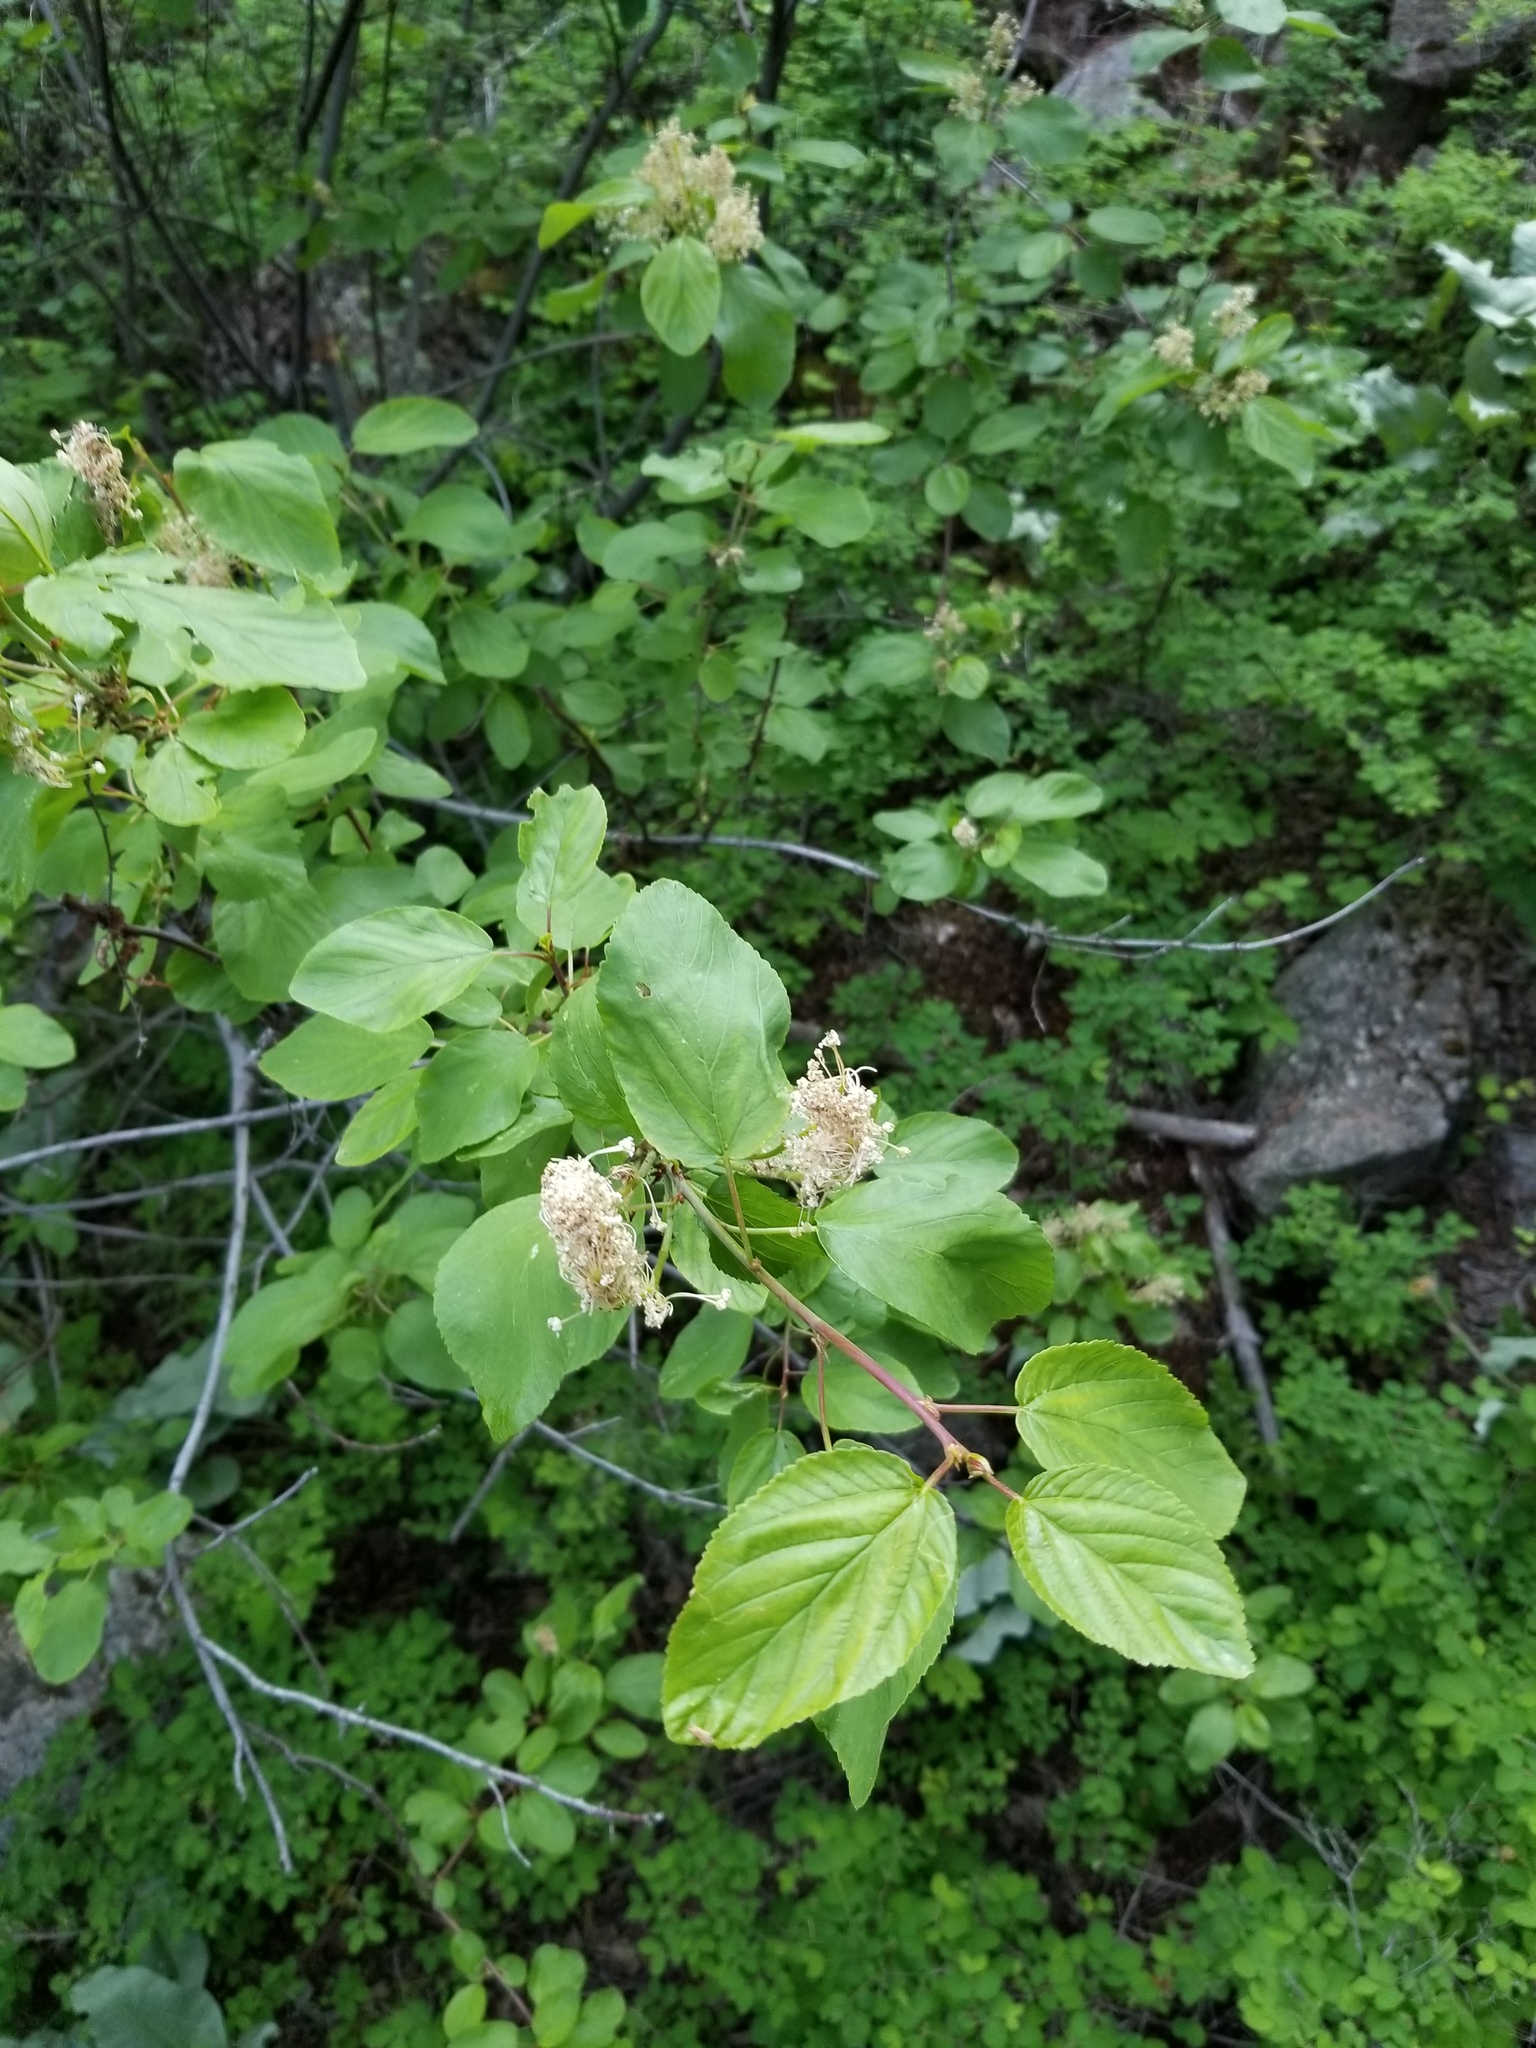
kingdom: Plantae
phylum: Tracheophyta
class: Magnoliopsida
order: Rosales
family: Rhamnaceae
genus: Ceanothus
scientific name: Ceanothus sanguineus
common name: Teatree
